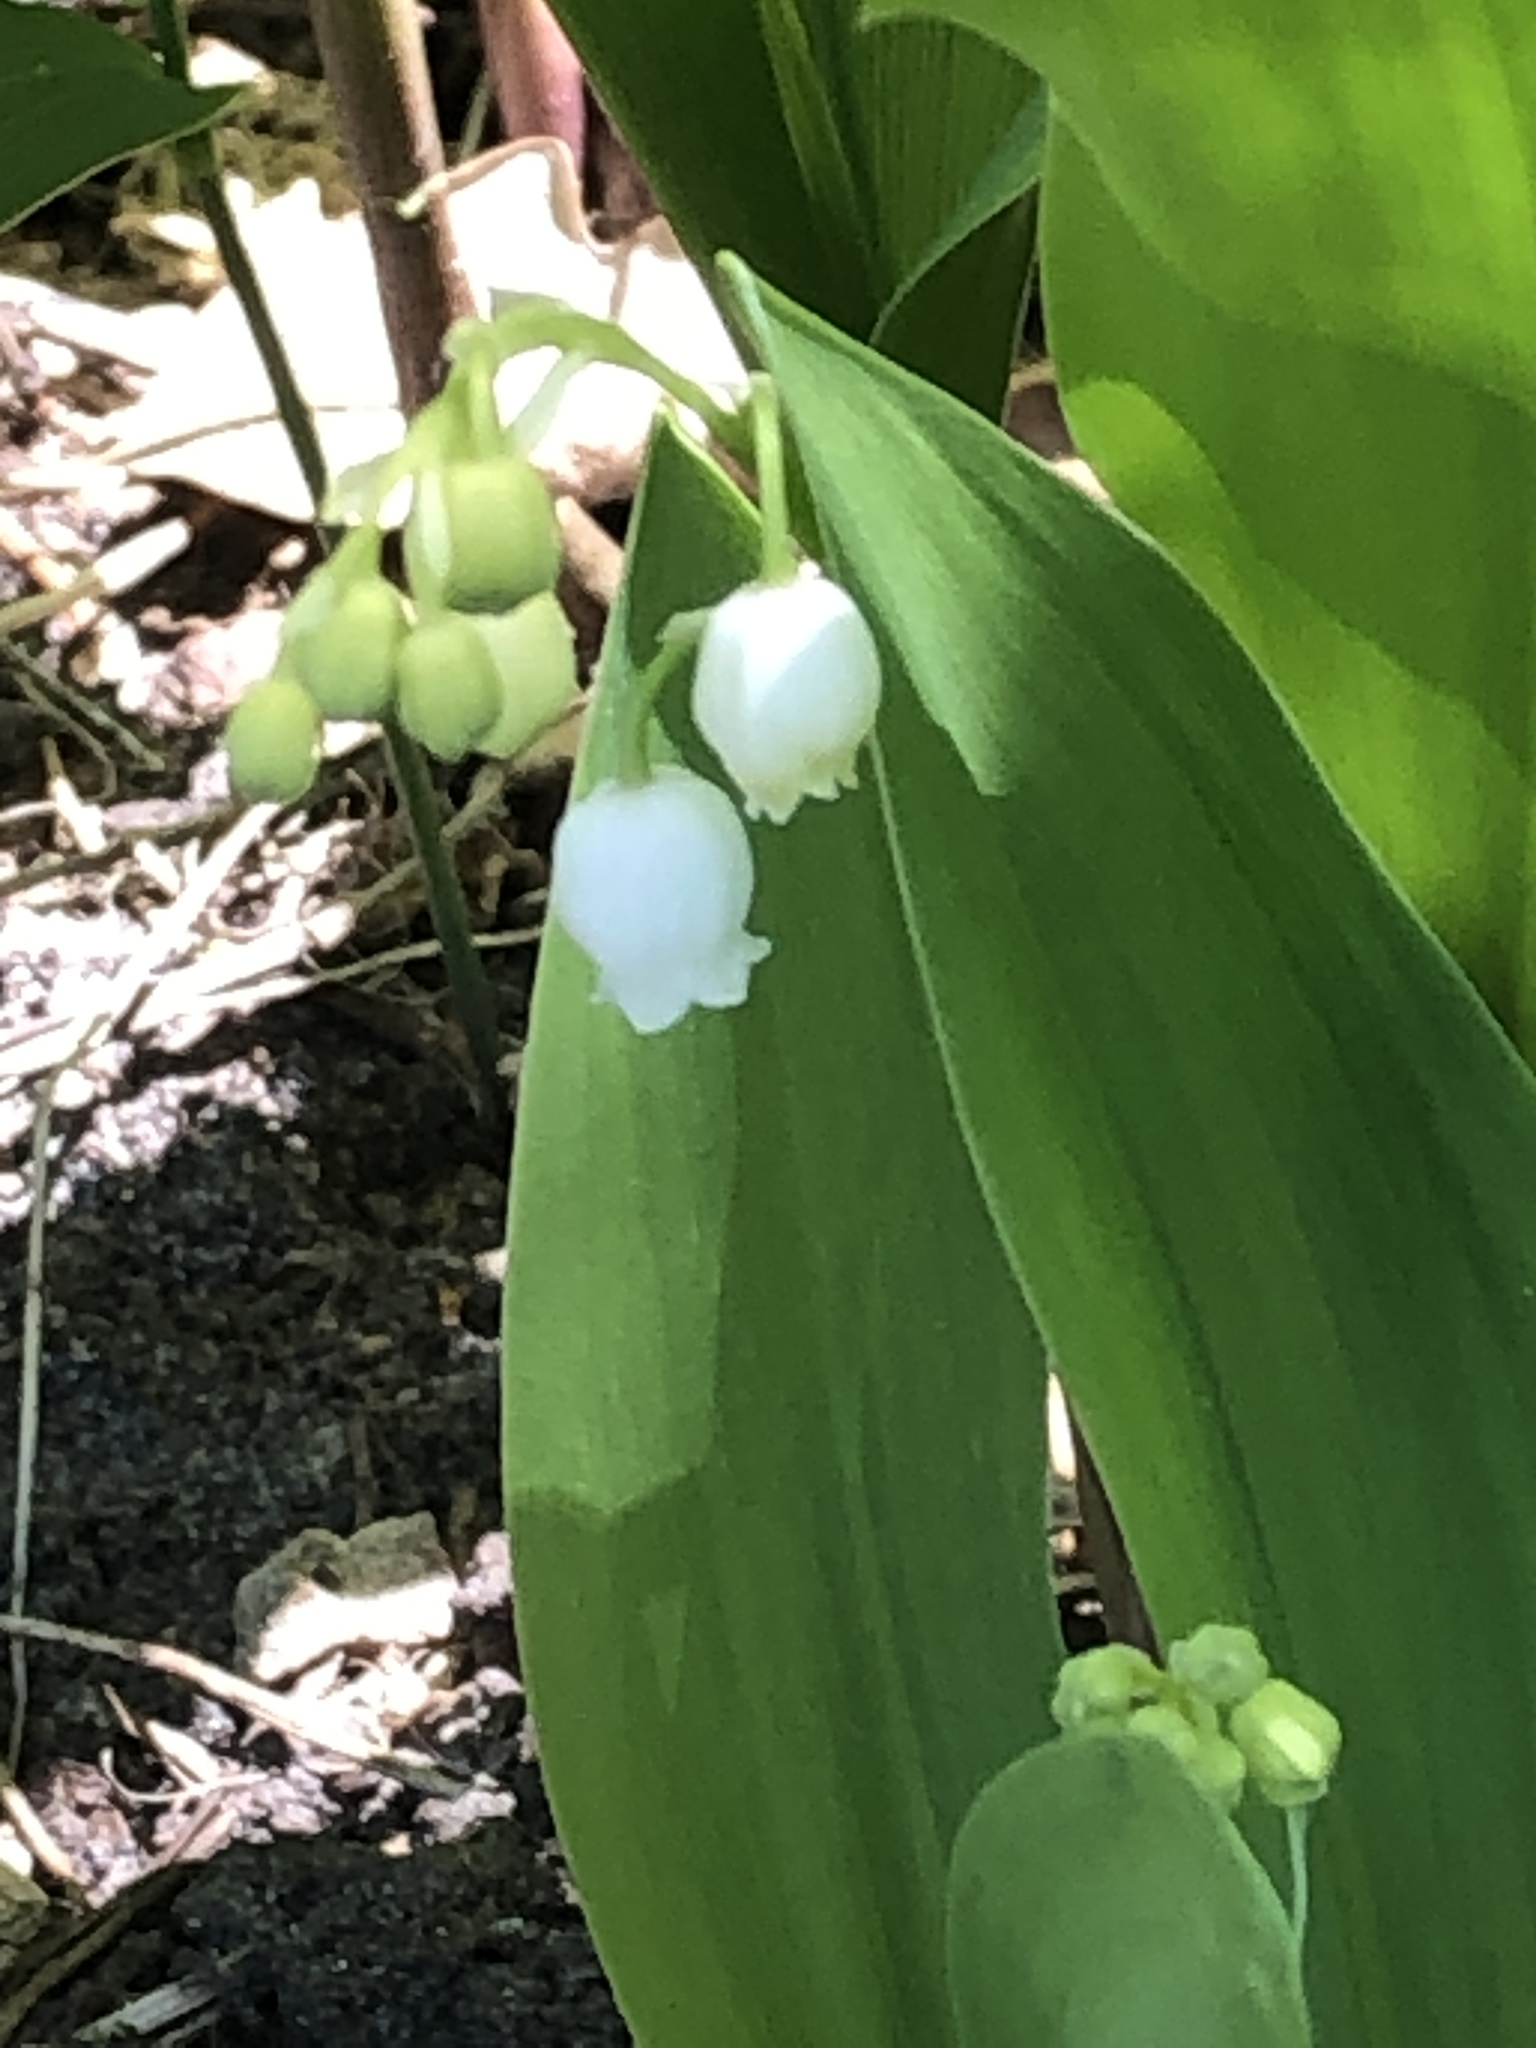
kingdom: Plantae
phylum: Tracheophyta
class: Liliopsida
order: Asparagales
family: Asparagaceae
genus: Convallaria
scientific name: Convallaria majalis
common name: Lily-of-the-valley
